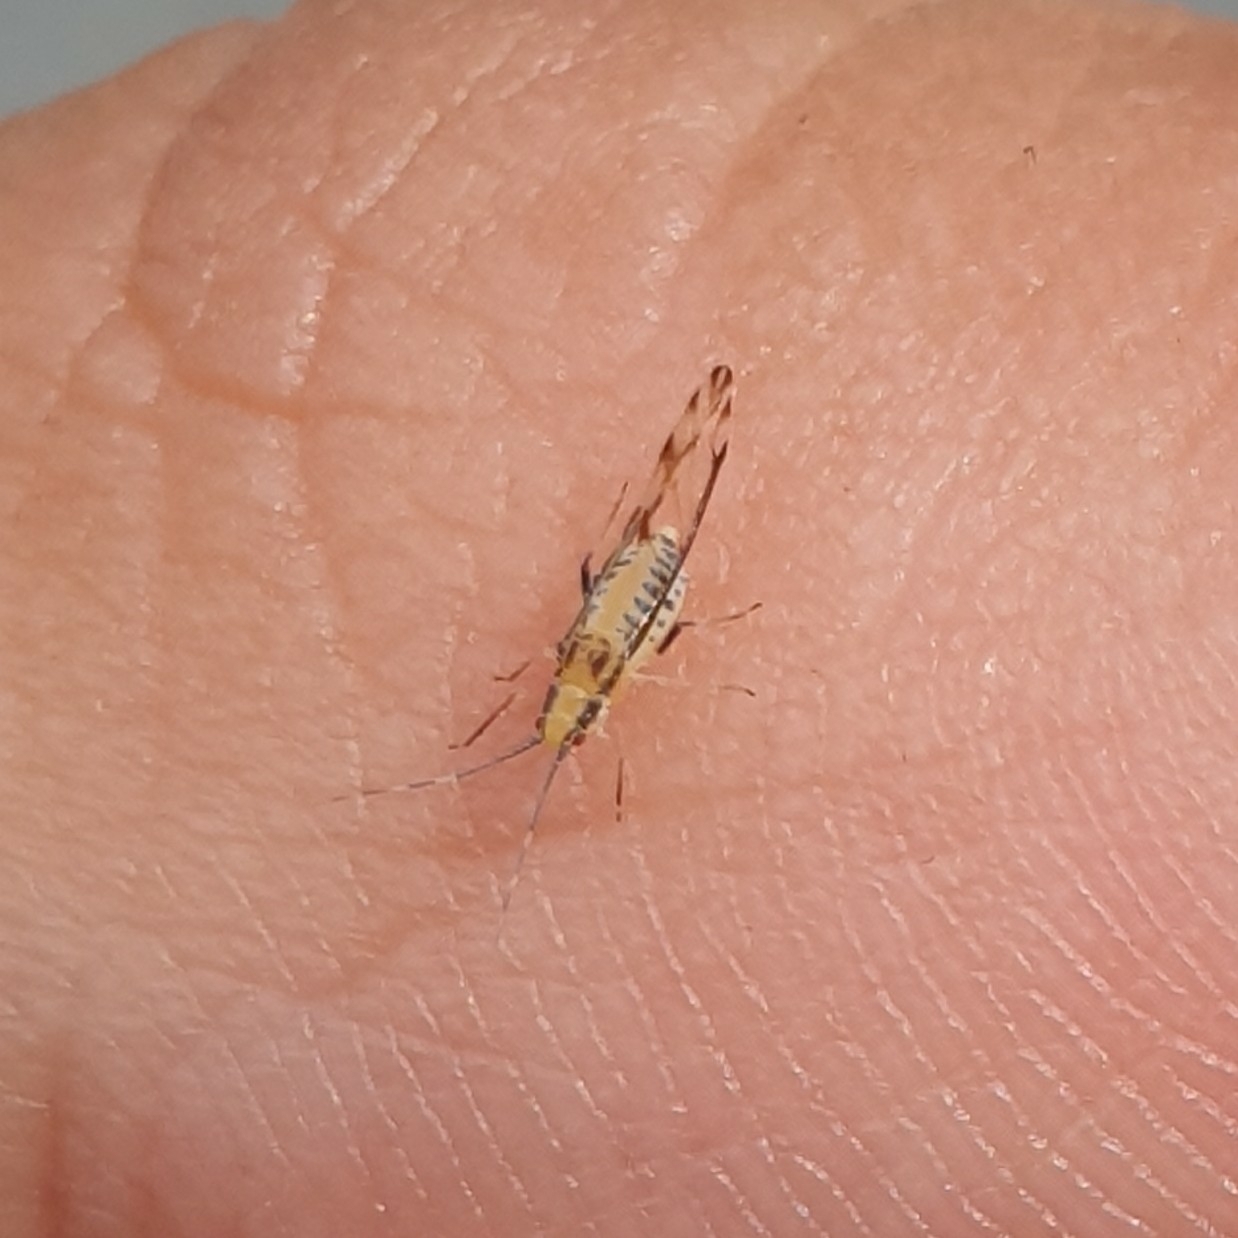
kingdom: Animalia
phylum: Arthropoda
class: Insecta
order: Hemiptera
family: Aphididae
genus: Eucallipterus
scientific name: Eucallipterus tiliae
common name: Aphid
